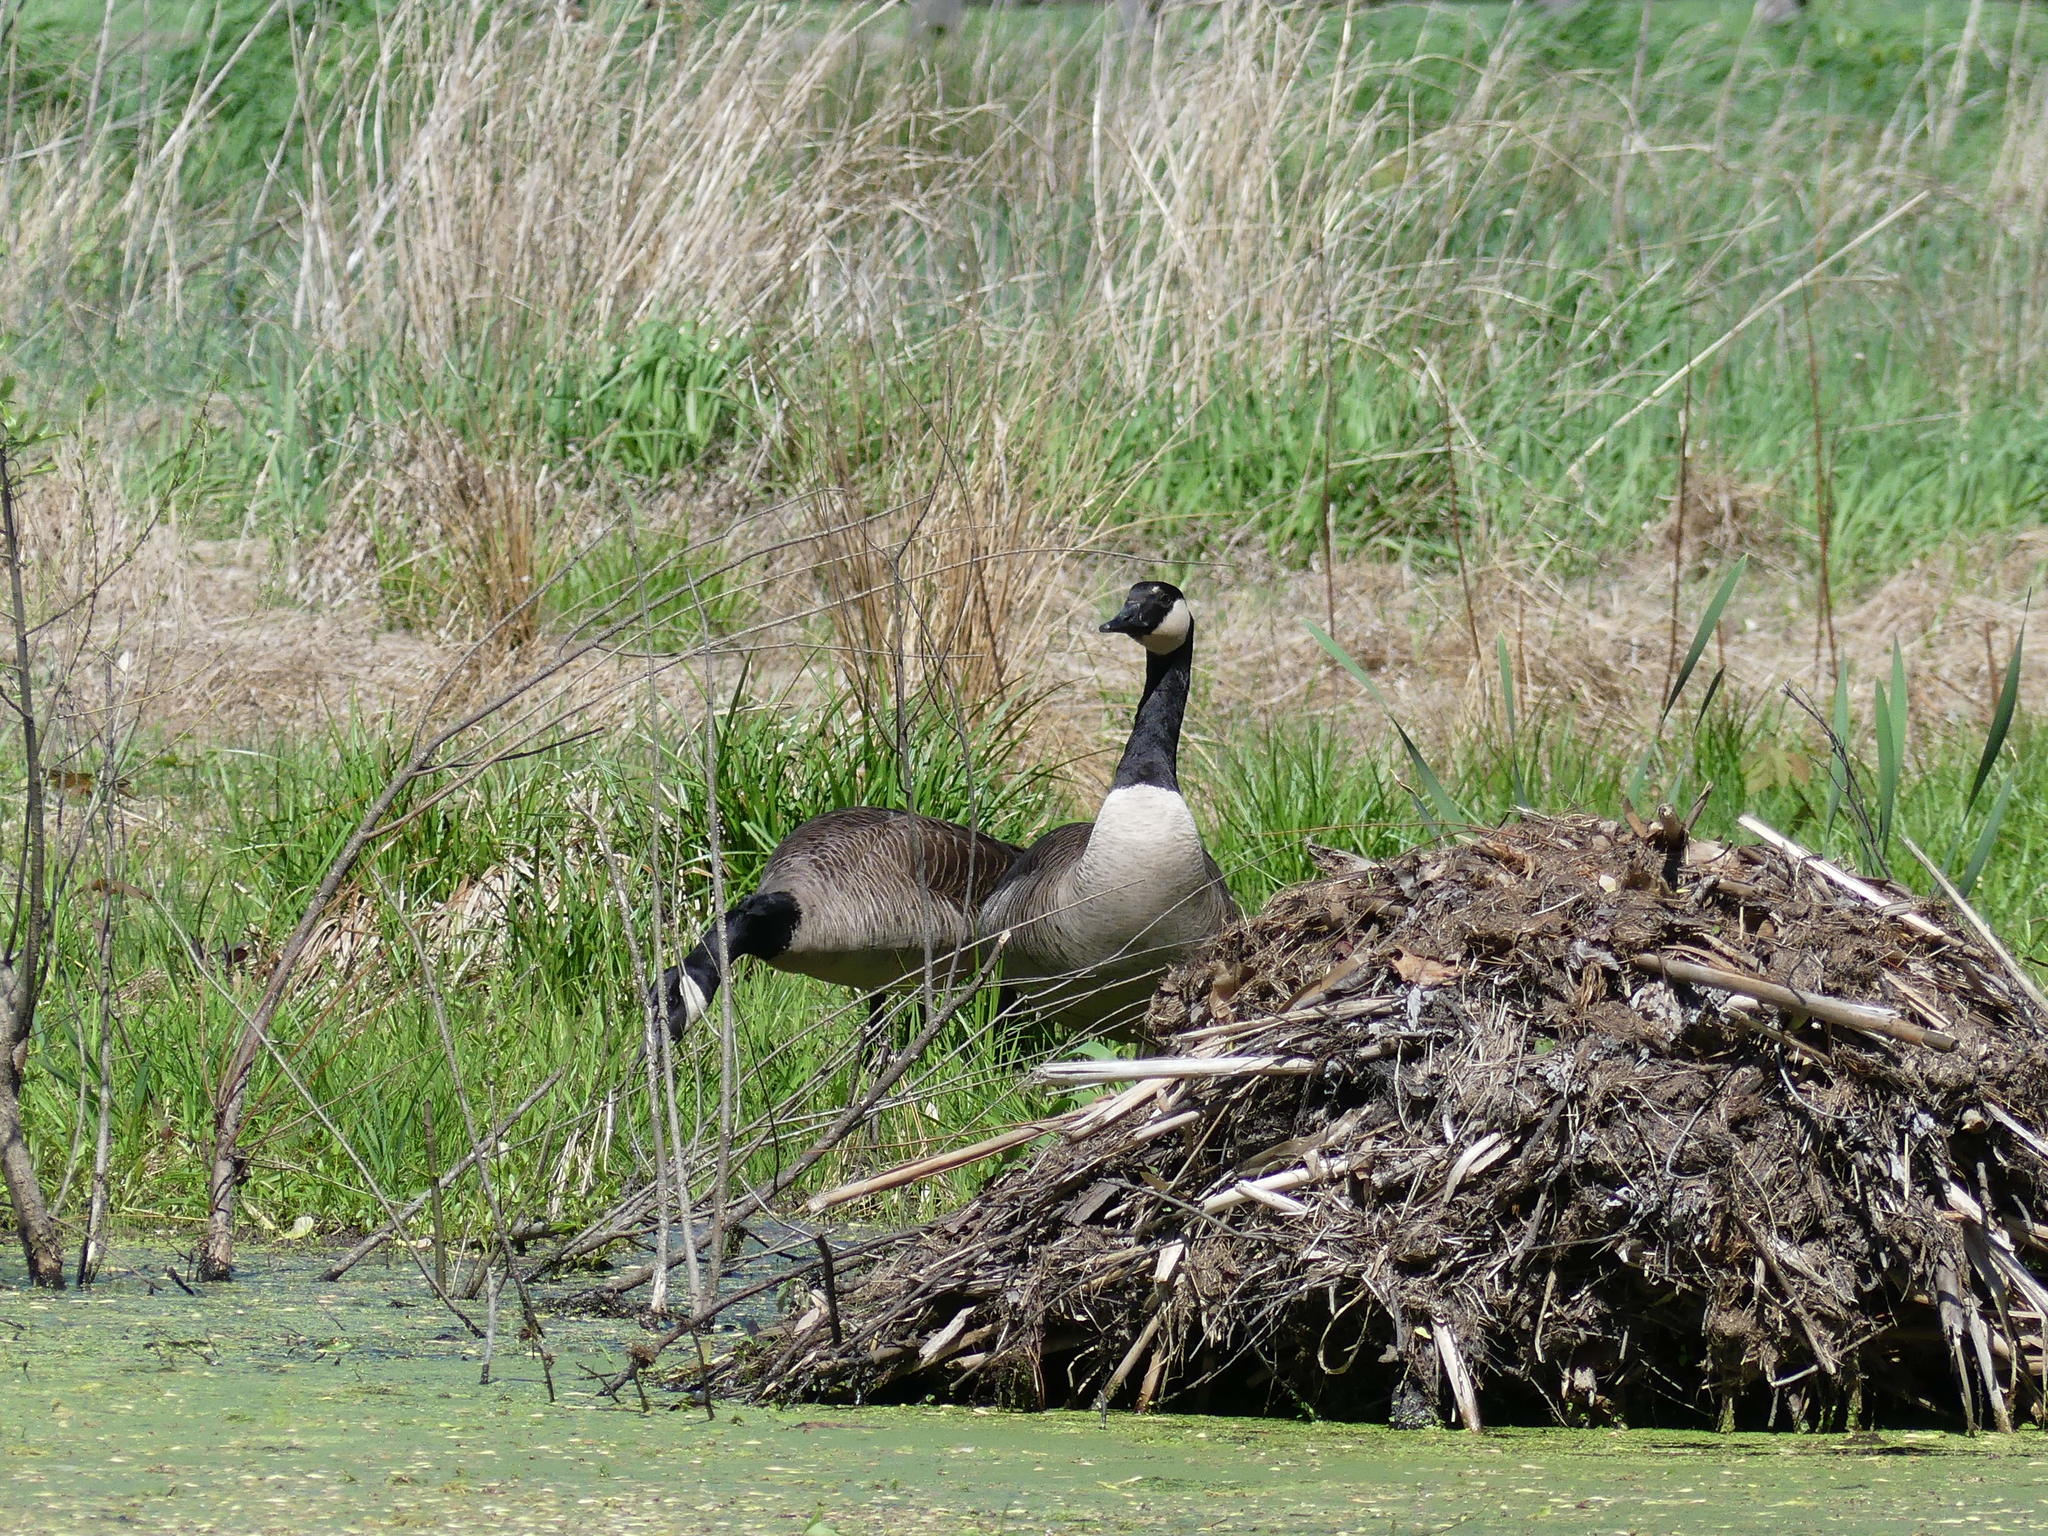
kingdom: Animalia
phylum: Chordata
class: Aves
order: Anseriformes
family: Anatidae
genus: Branta
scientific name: Branta canadensis
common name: Canada goose
